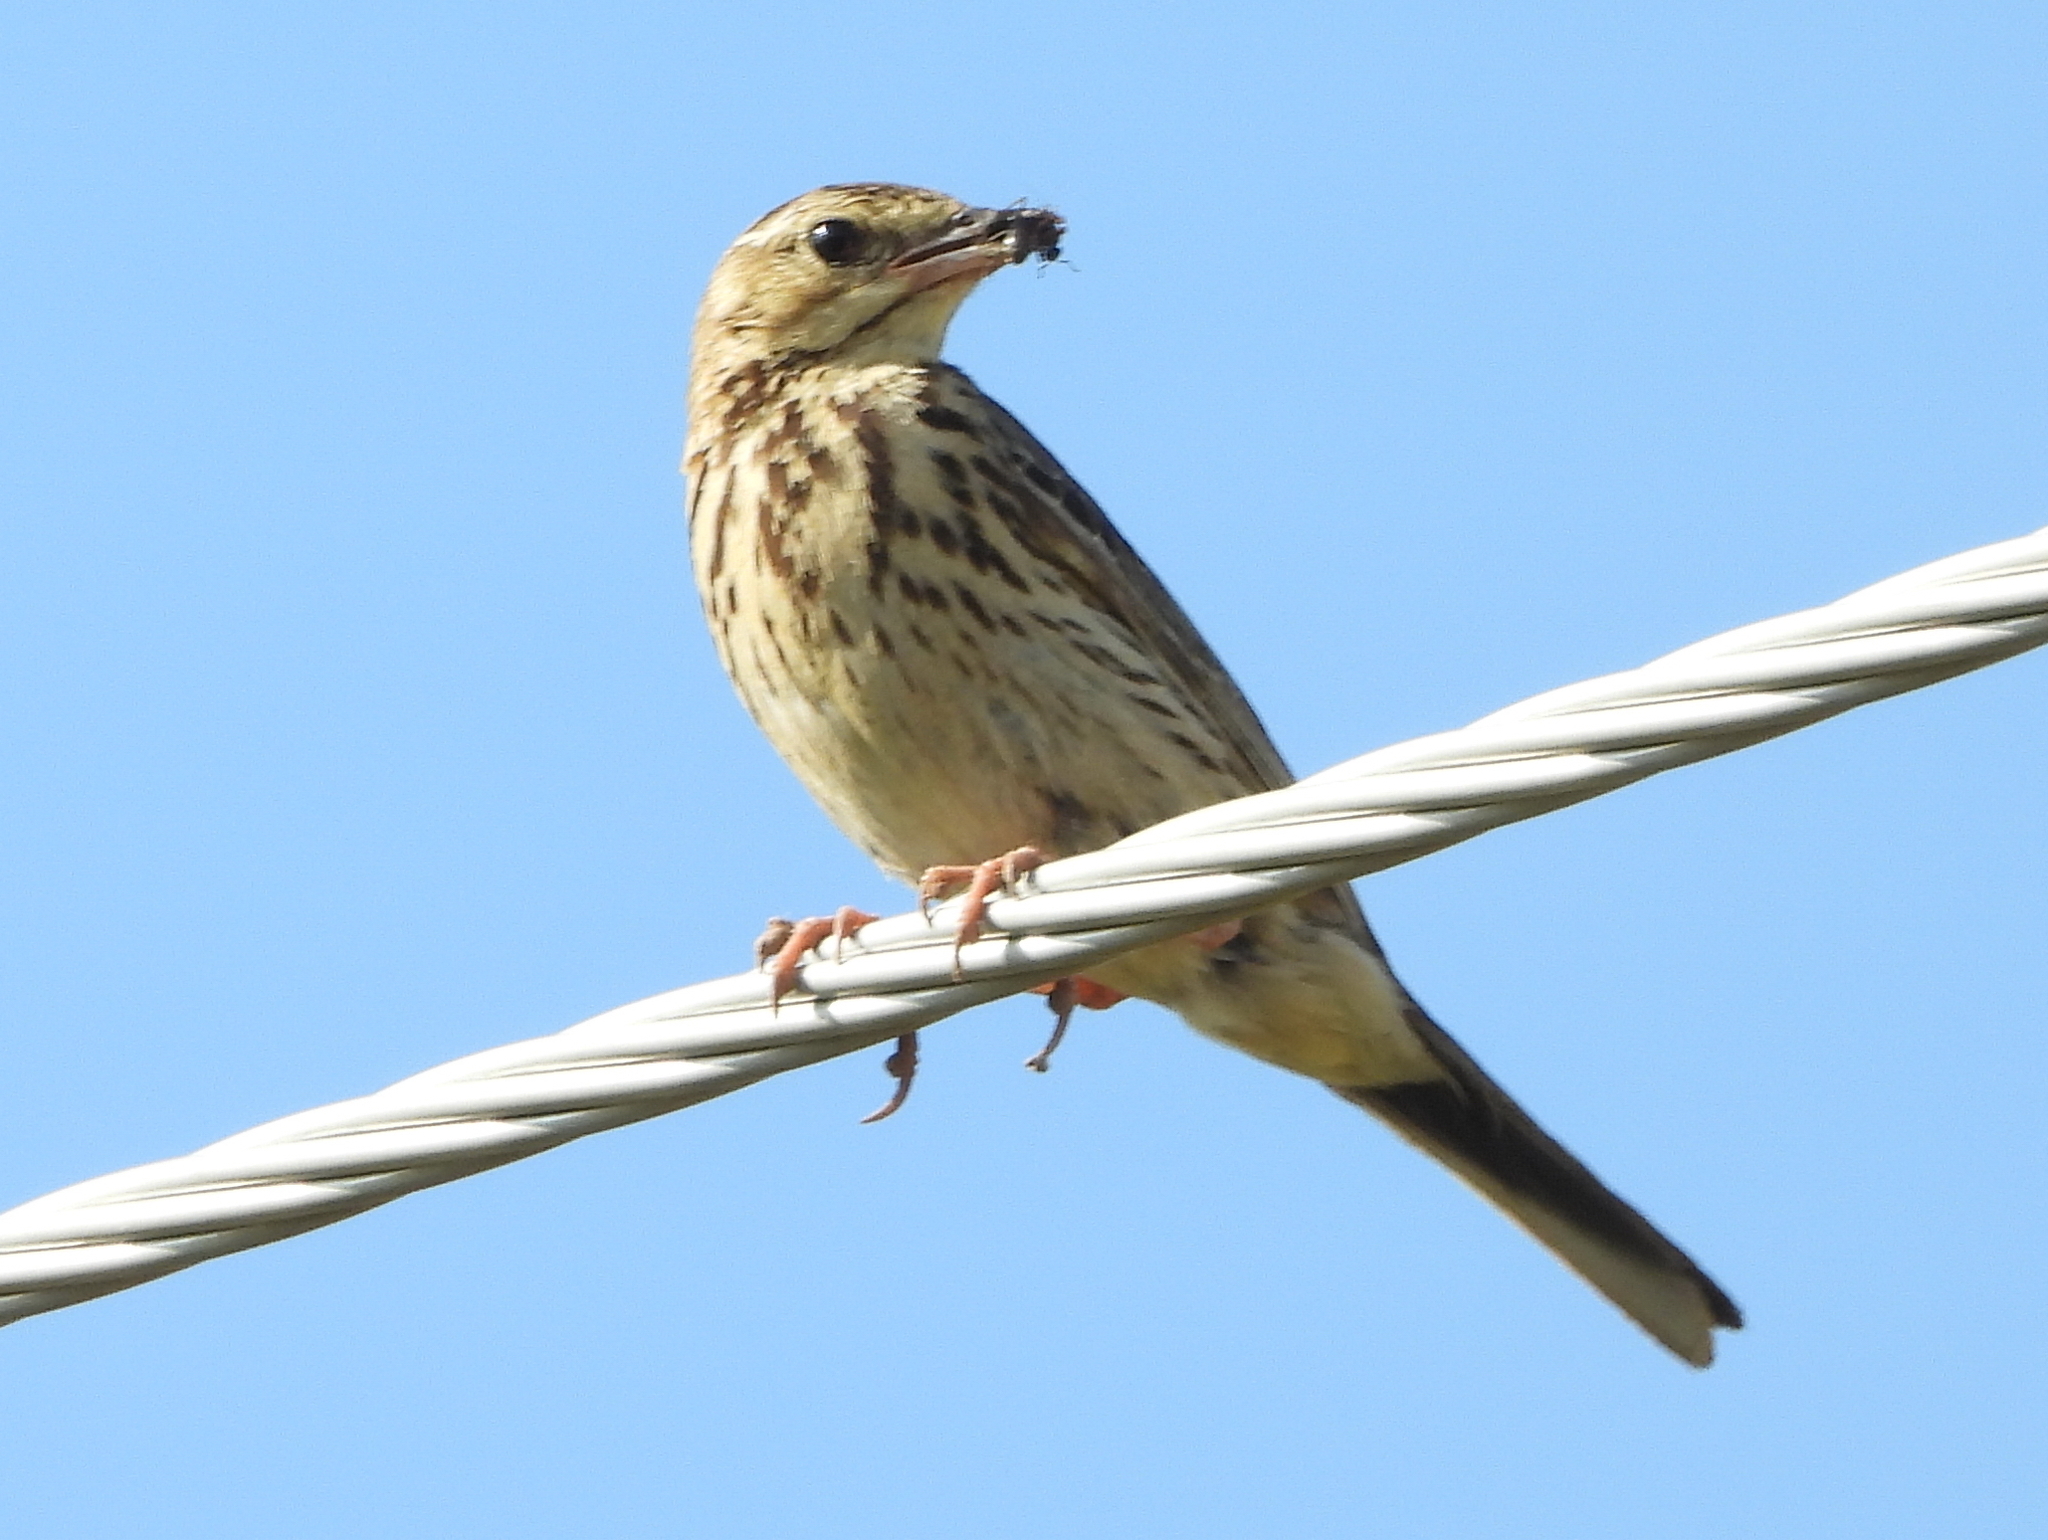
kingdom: Animalia
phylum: Chordata
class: Aves
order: Passeriformes
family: Motacillidae
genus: Anthus
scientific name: Anthus trivialis
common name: Tree pipit
